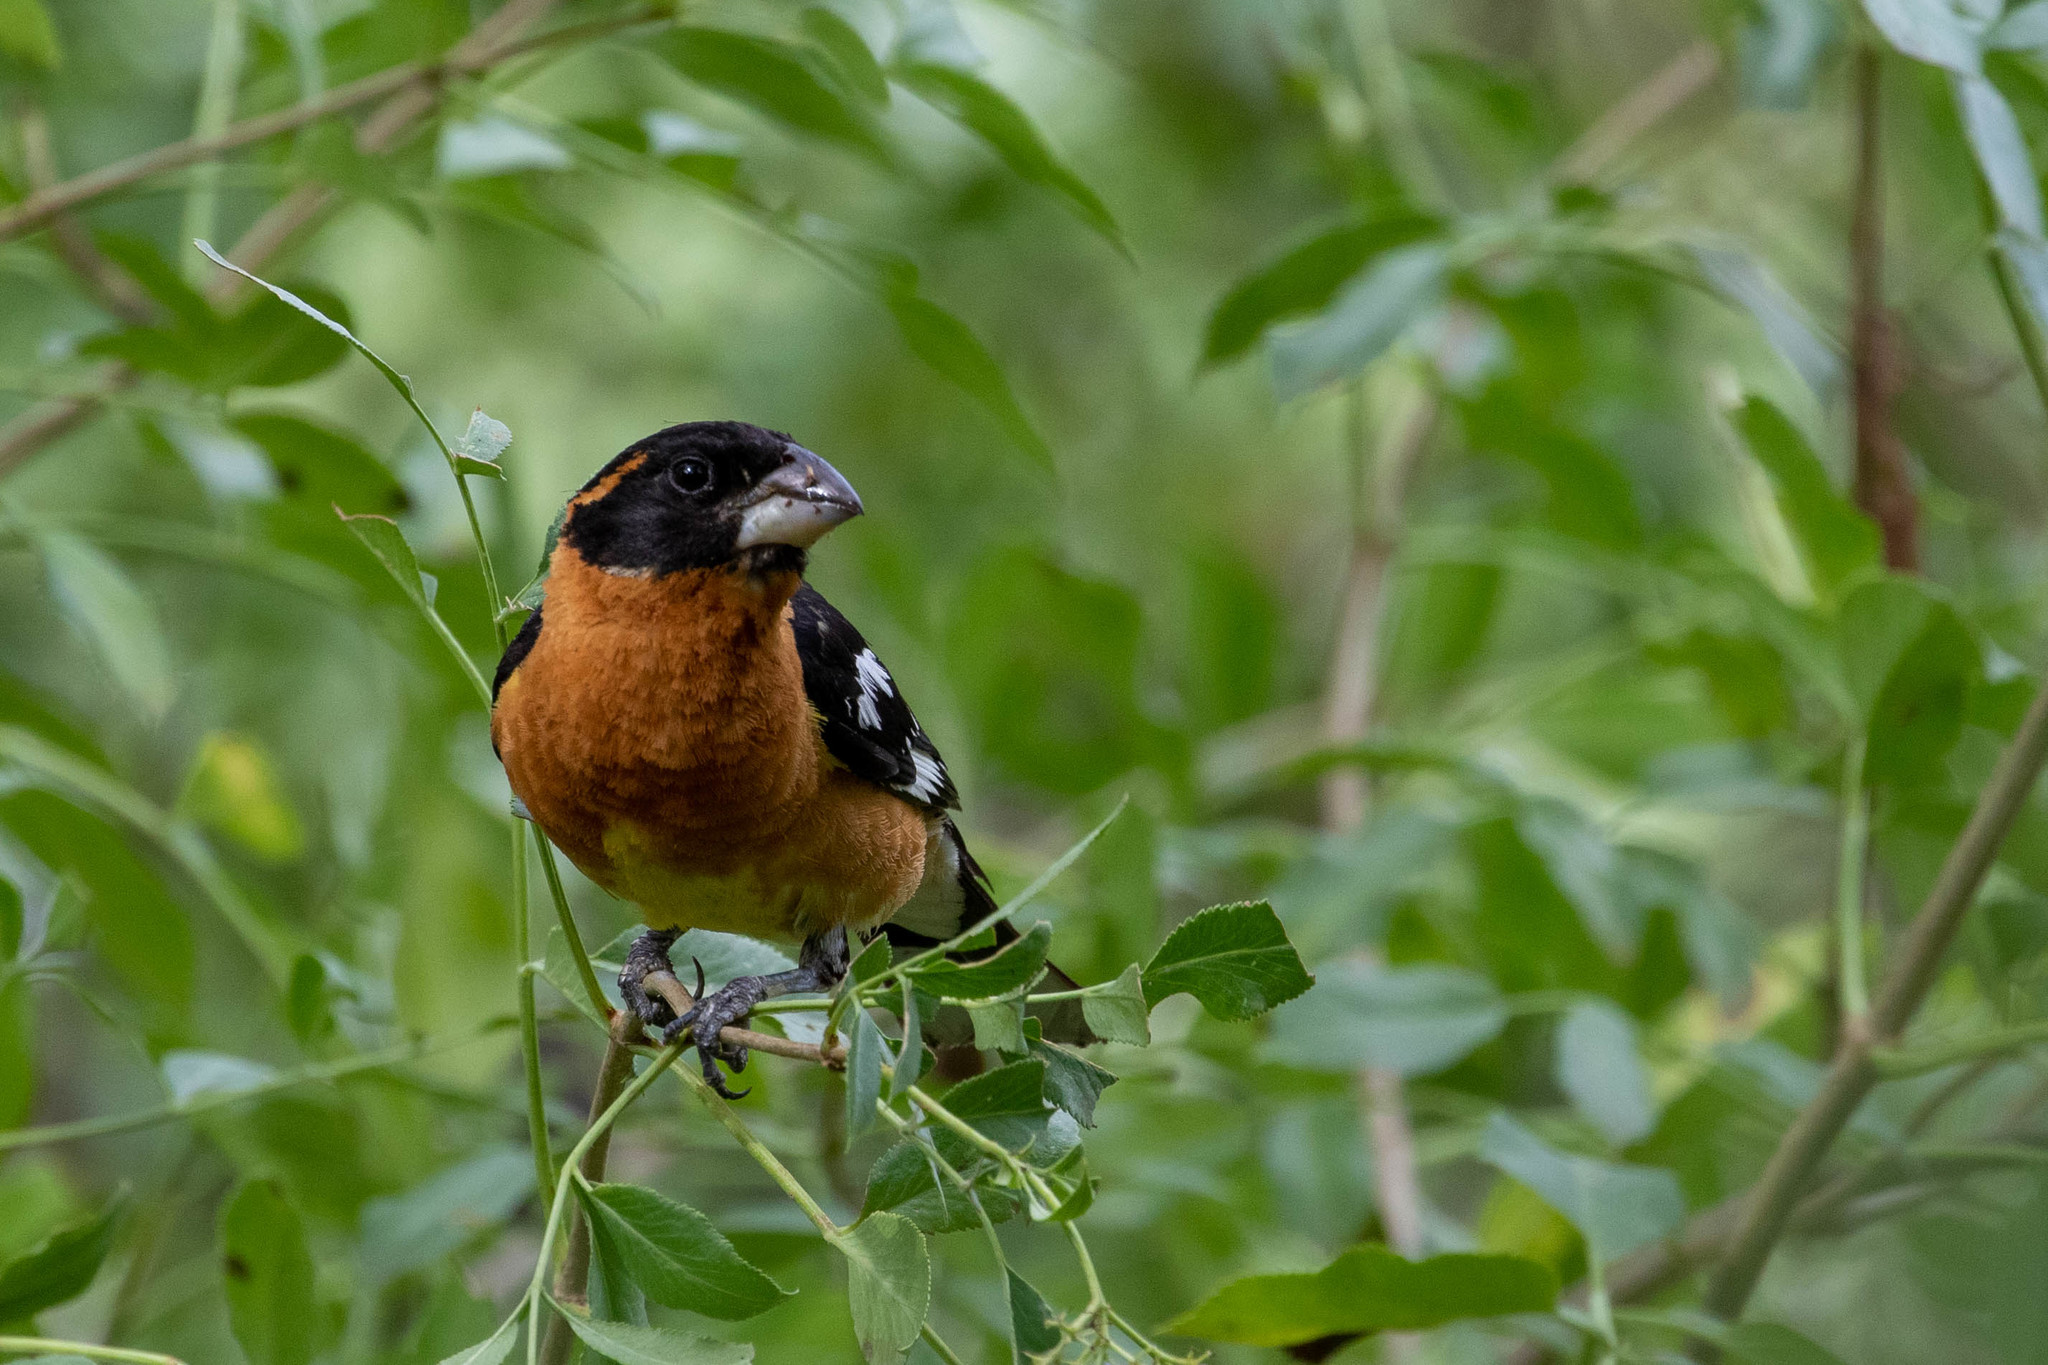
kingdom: Animalia
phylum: Chordata
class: Aves
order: Passeriformes
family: Cardinalidae
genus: Pheucticus
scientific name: Pheucticus melanocephalus
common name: Black-headed grosbeak
